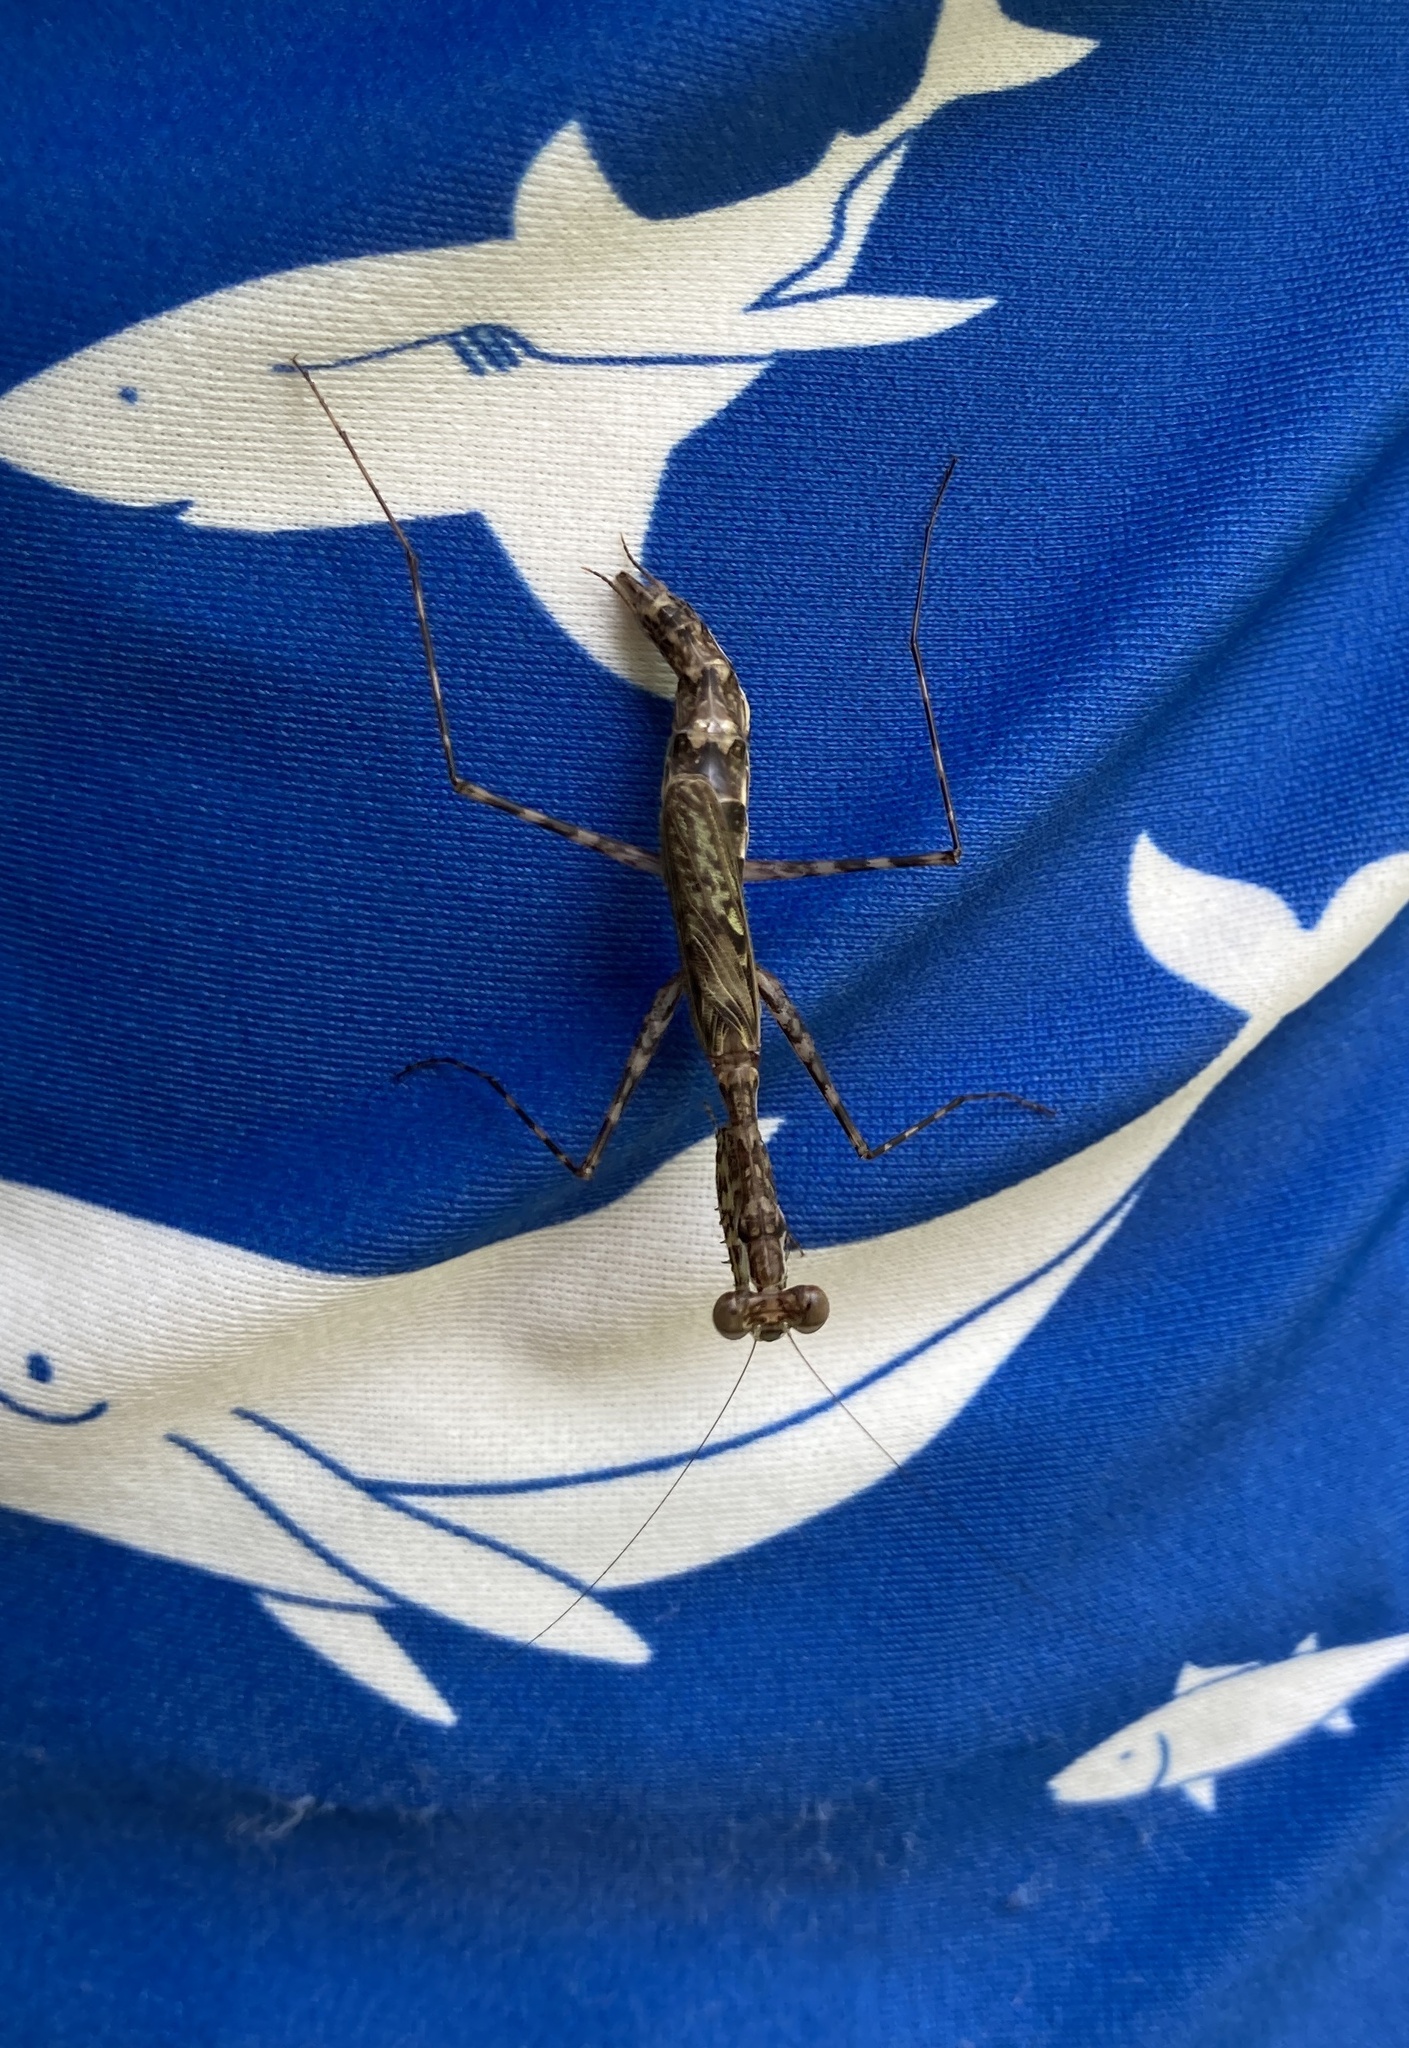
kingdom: Animalia
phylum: Arthropoda
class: Insecta
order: Mantodea
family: Nanomantidae
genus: Ciulfina
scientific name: Ciulfina rentzi
